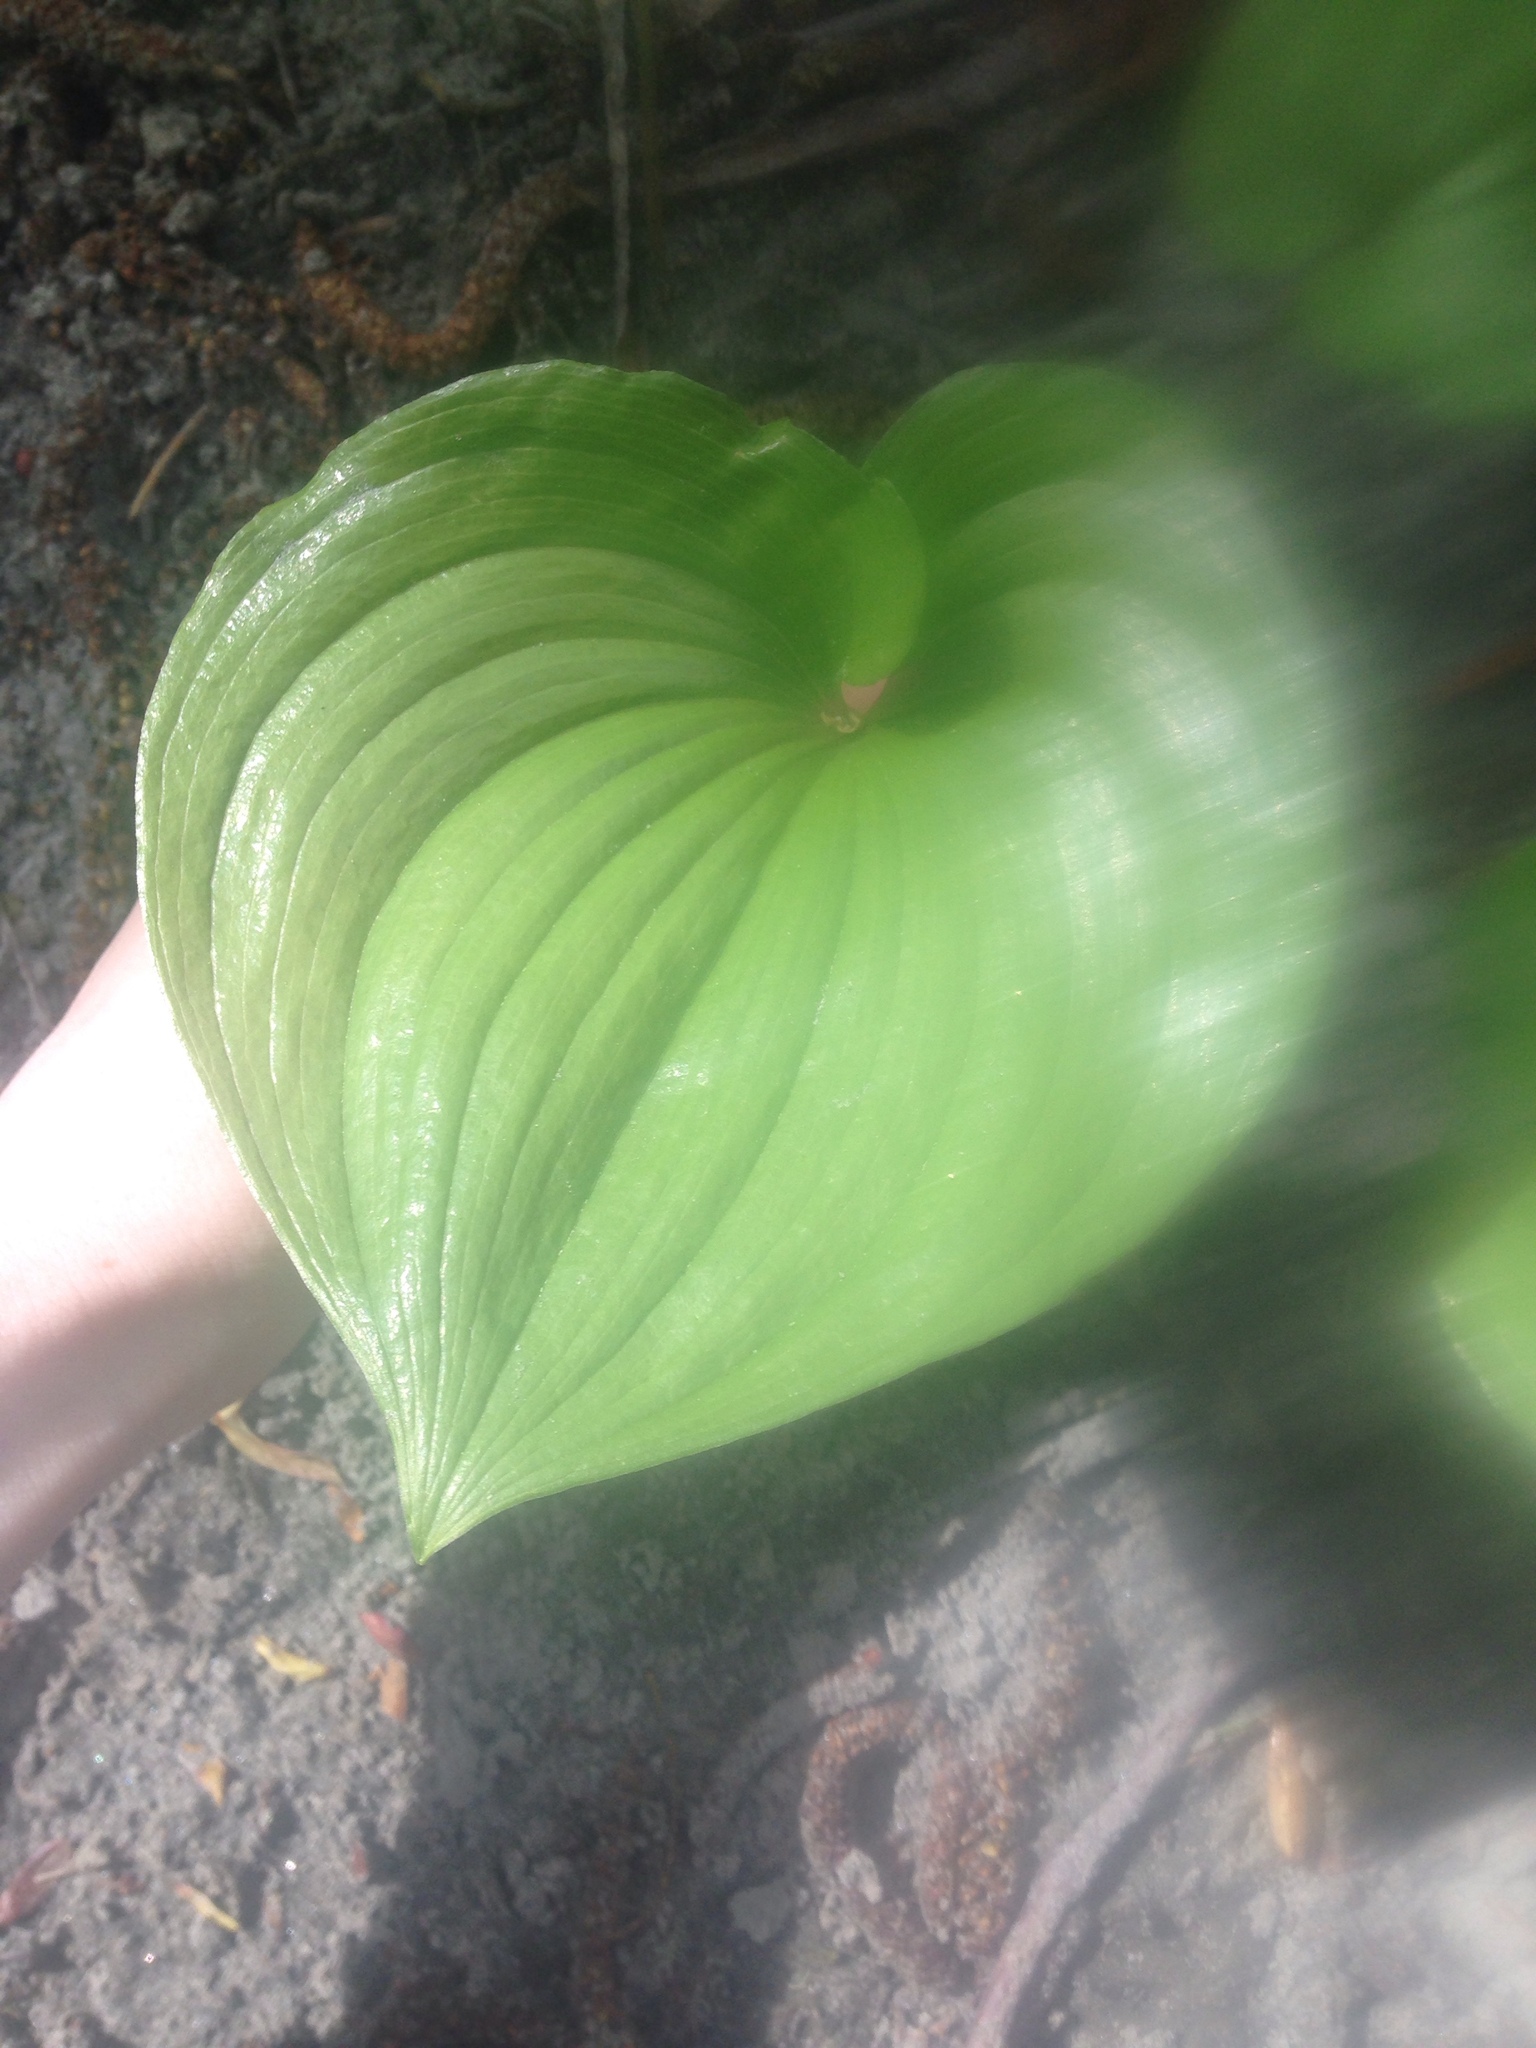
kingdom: Plantae
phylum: Tracheophyta
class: Liliopsida
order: Asparagales
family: Asparagaceae
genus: Maianthemum
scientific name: Maianthemum dilatatum
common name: False lily-of-the-valley
